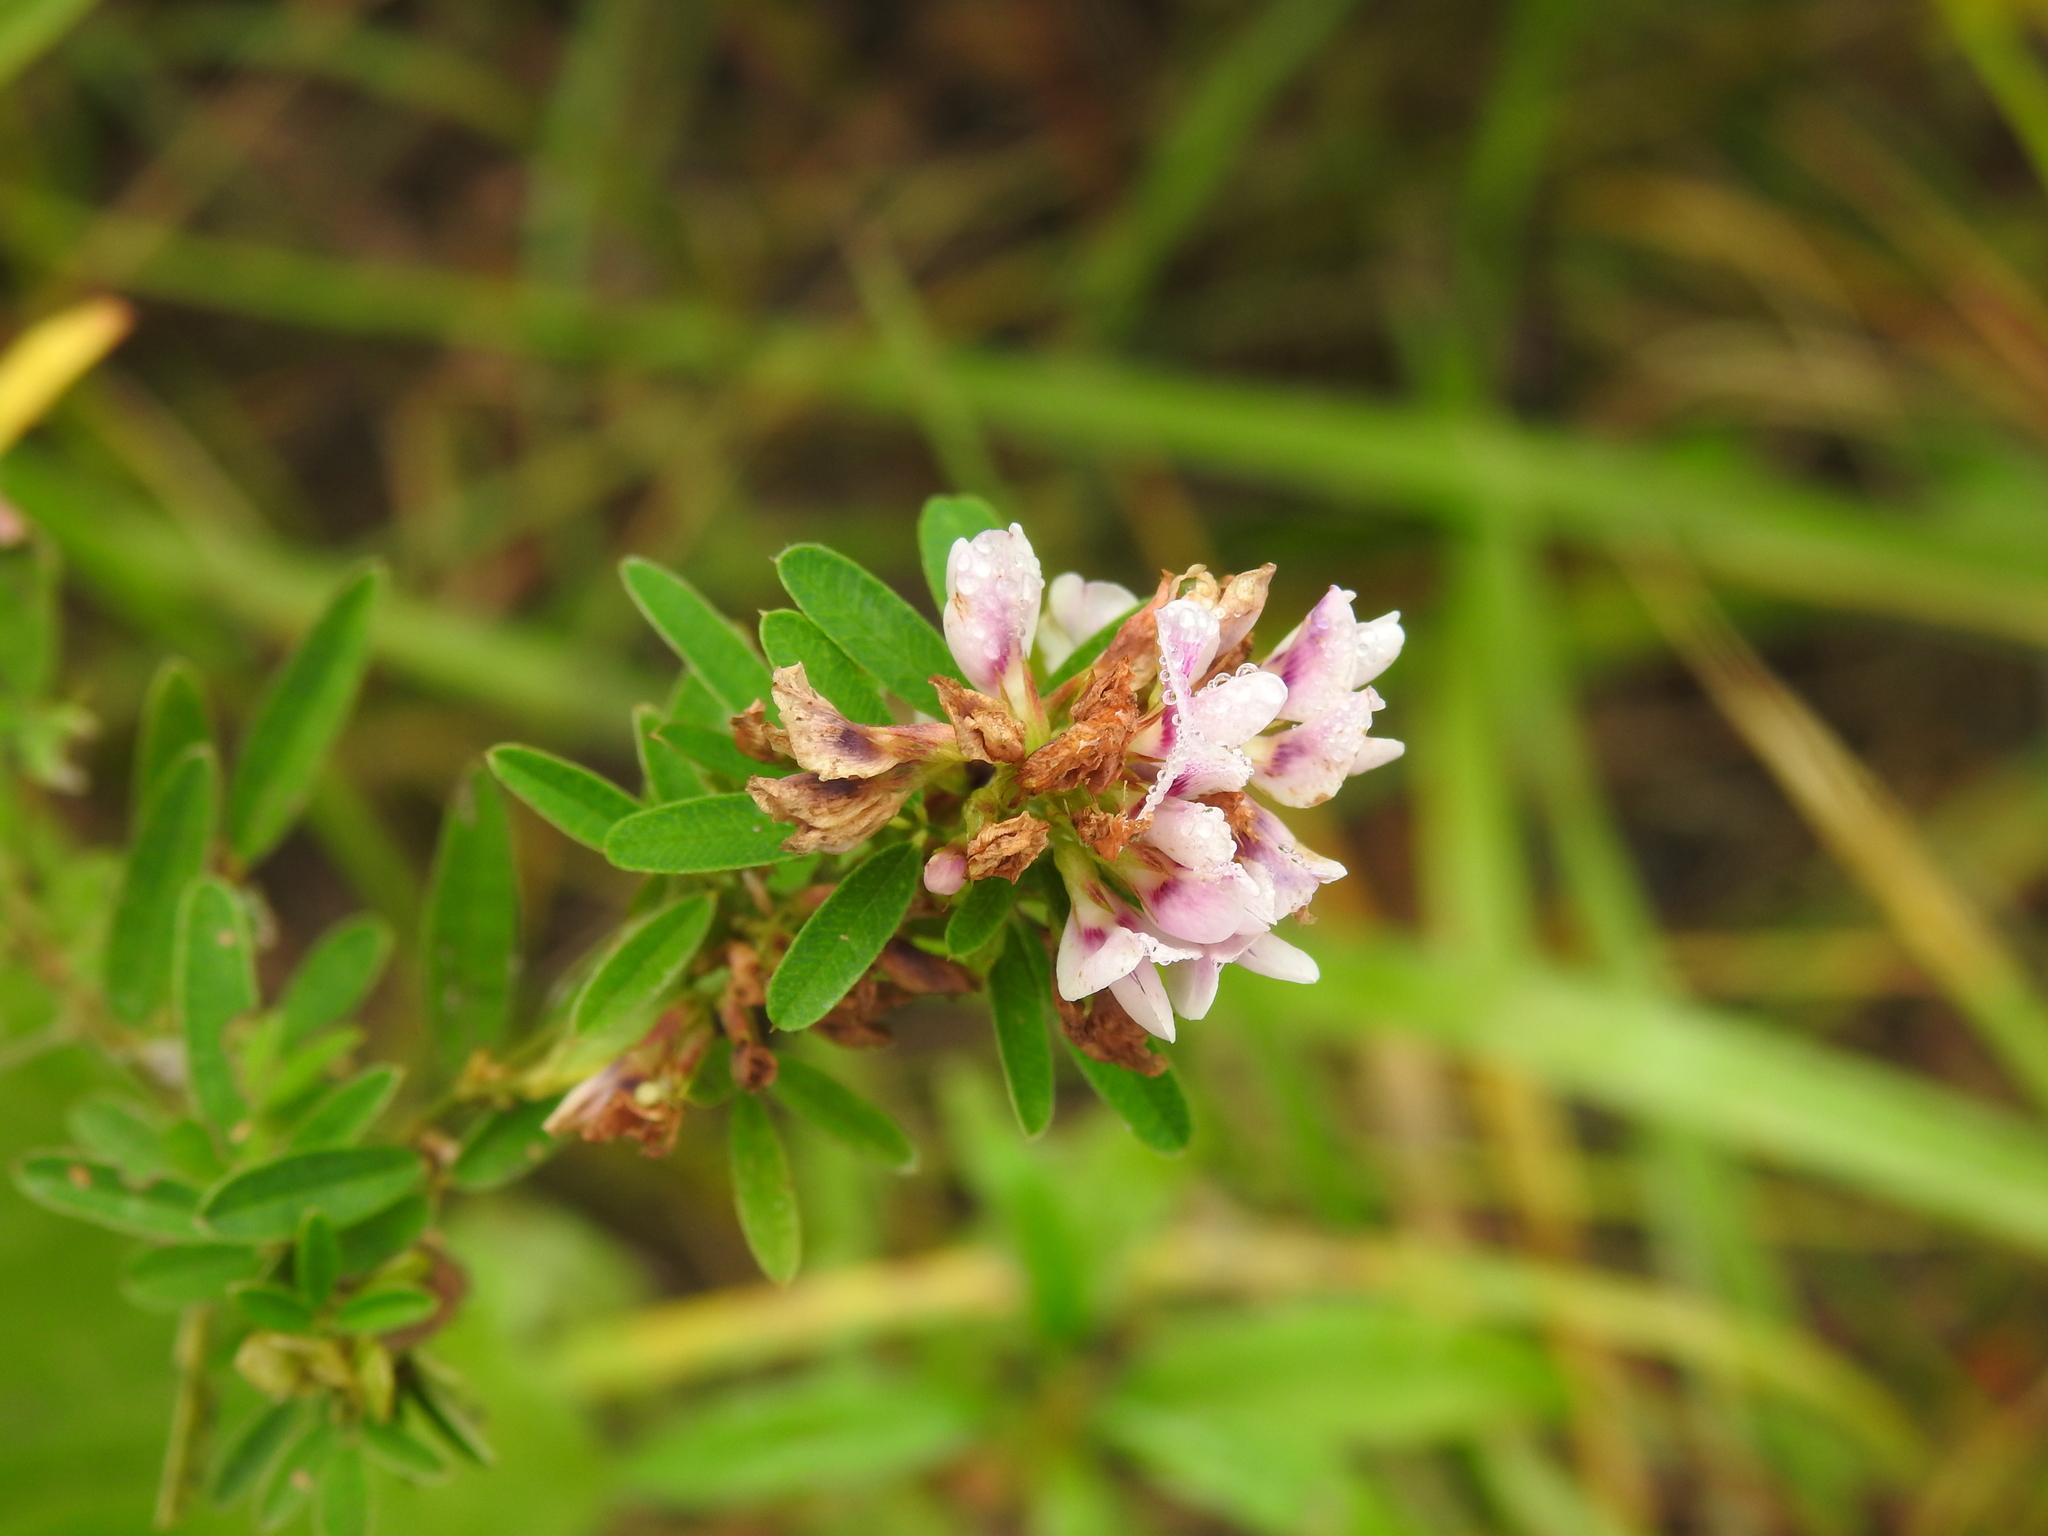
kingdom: Plantae
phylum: Tracheophyta
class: Magnoliopsida
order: Fabales
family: Fabaceae
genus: Lespedeza
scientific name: Lespedeza virginica
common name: Slender bush-clover
